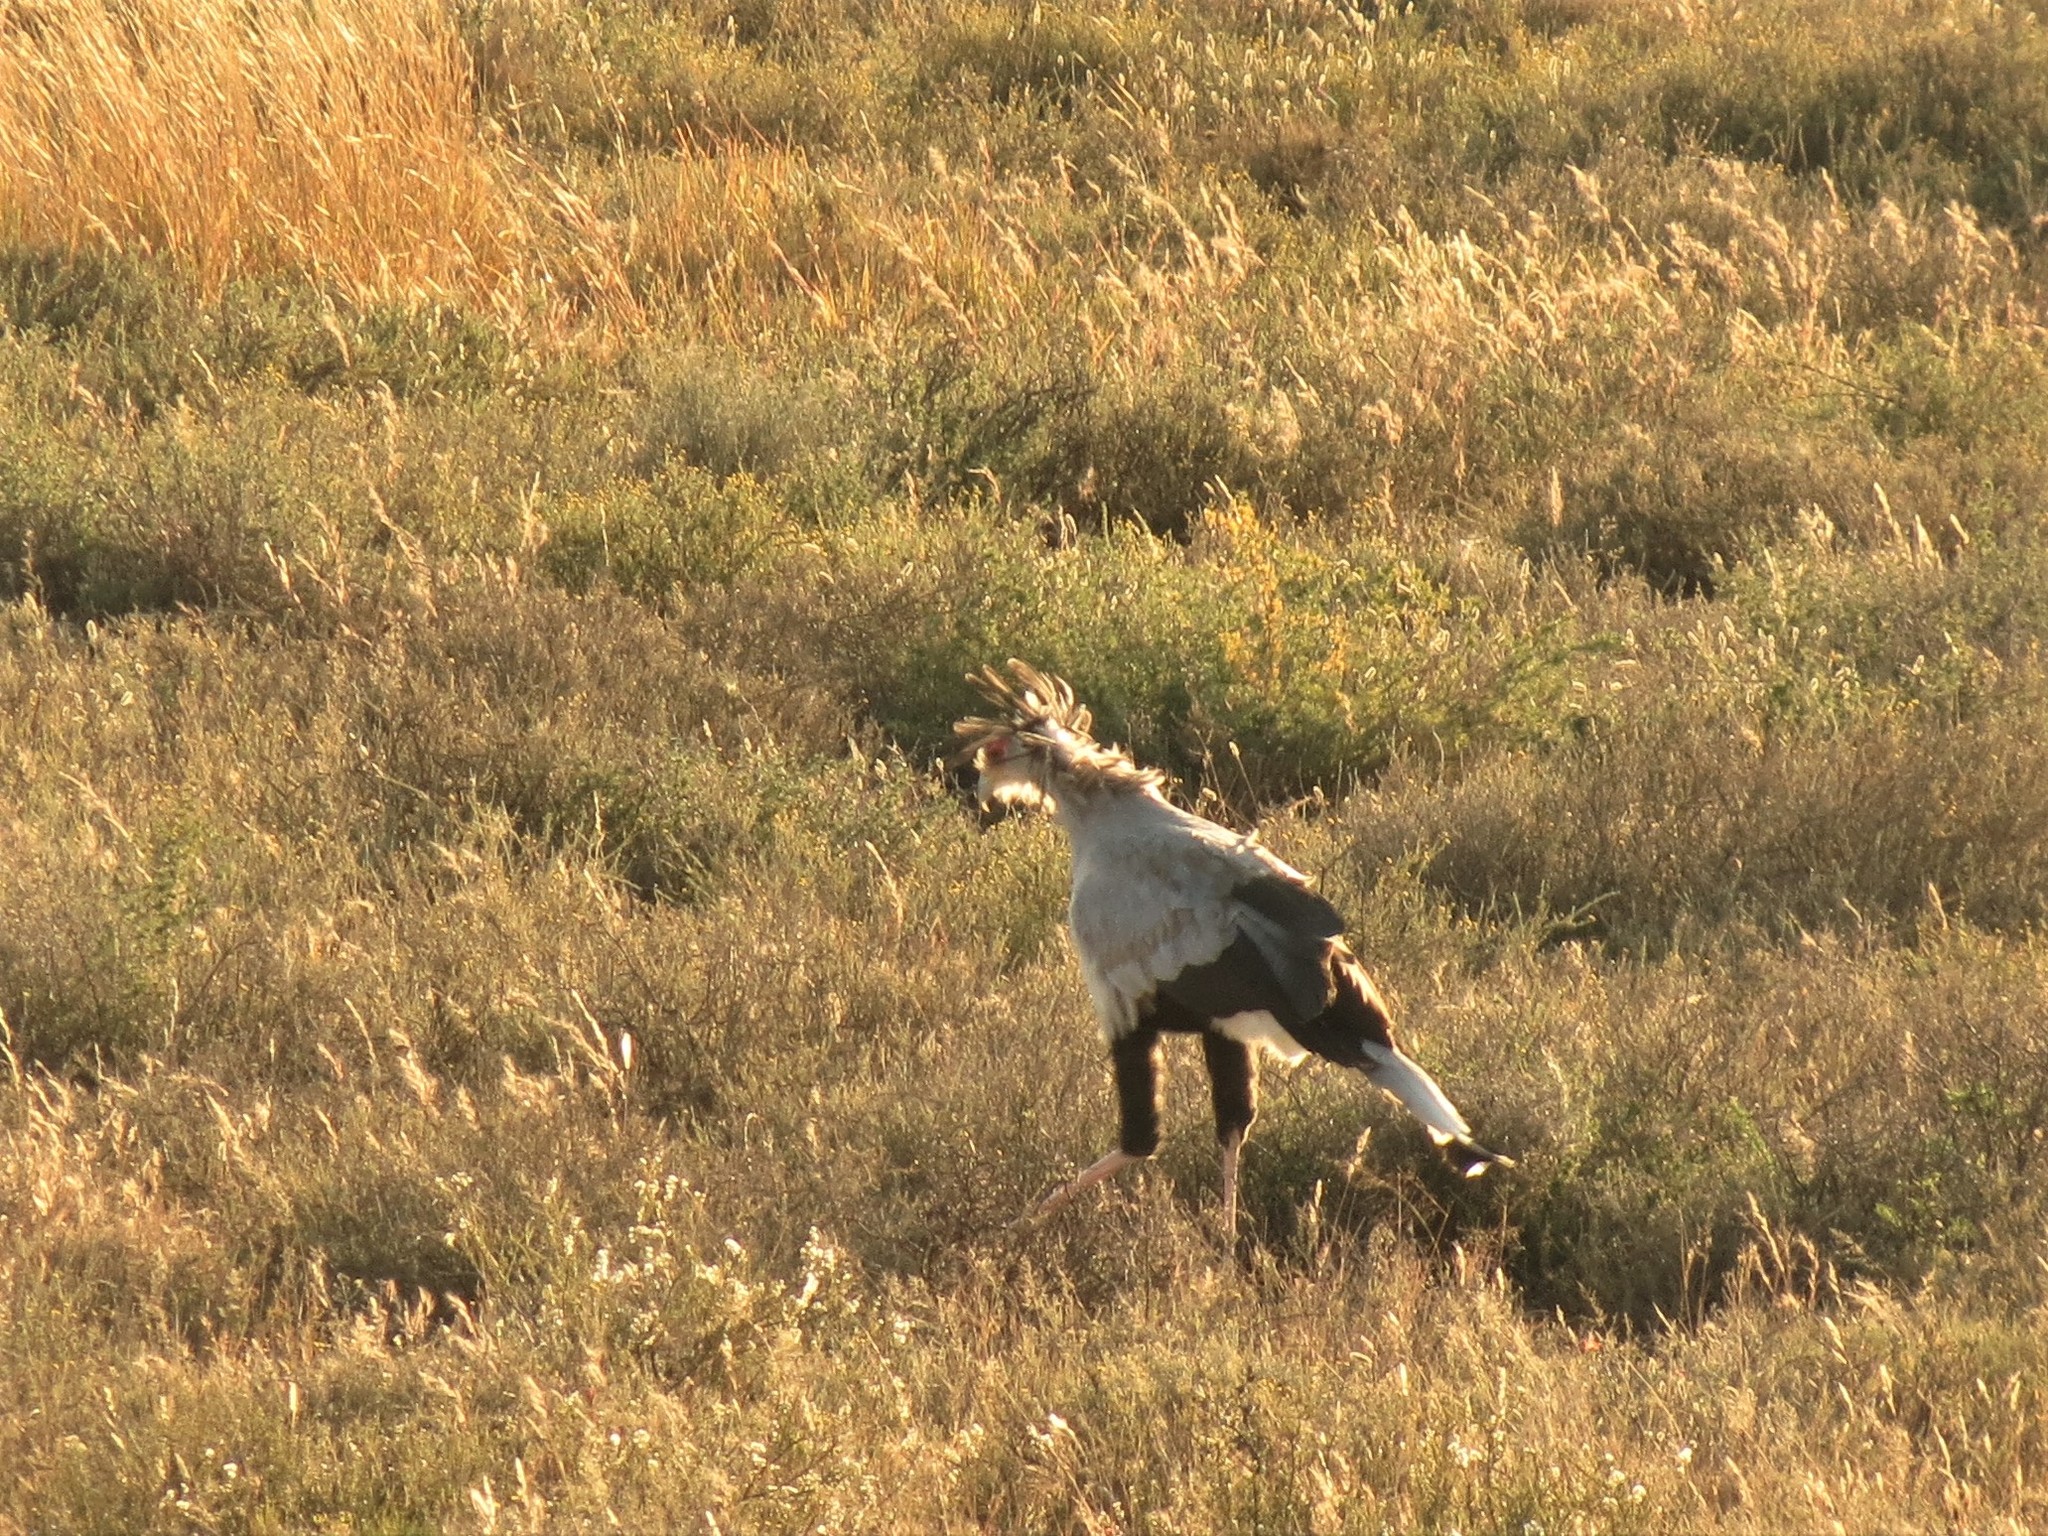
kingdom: Animalia
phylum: Chordata
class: Aves
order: Accipitriformes
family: Sagittariidae
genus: Sagittarius
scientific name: Sagittarius serpentarius
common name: Secretarybird
